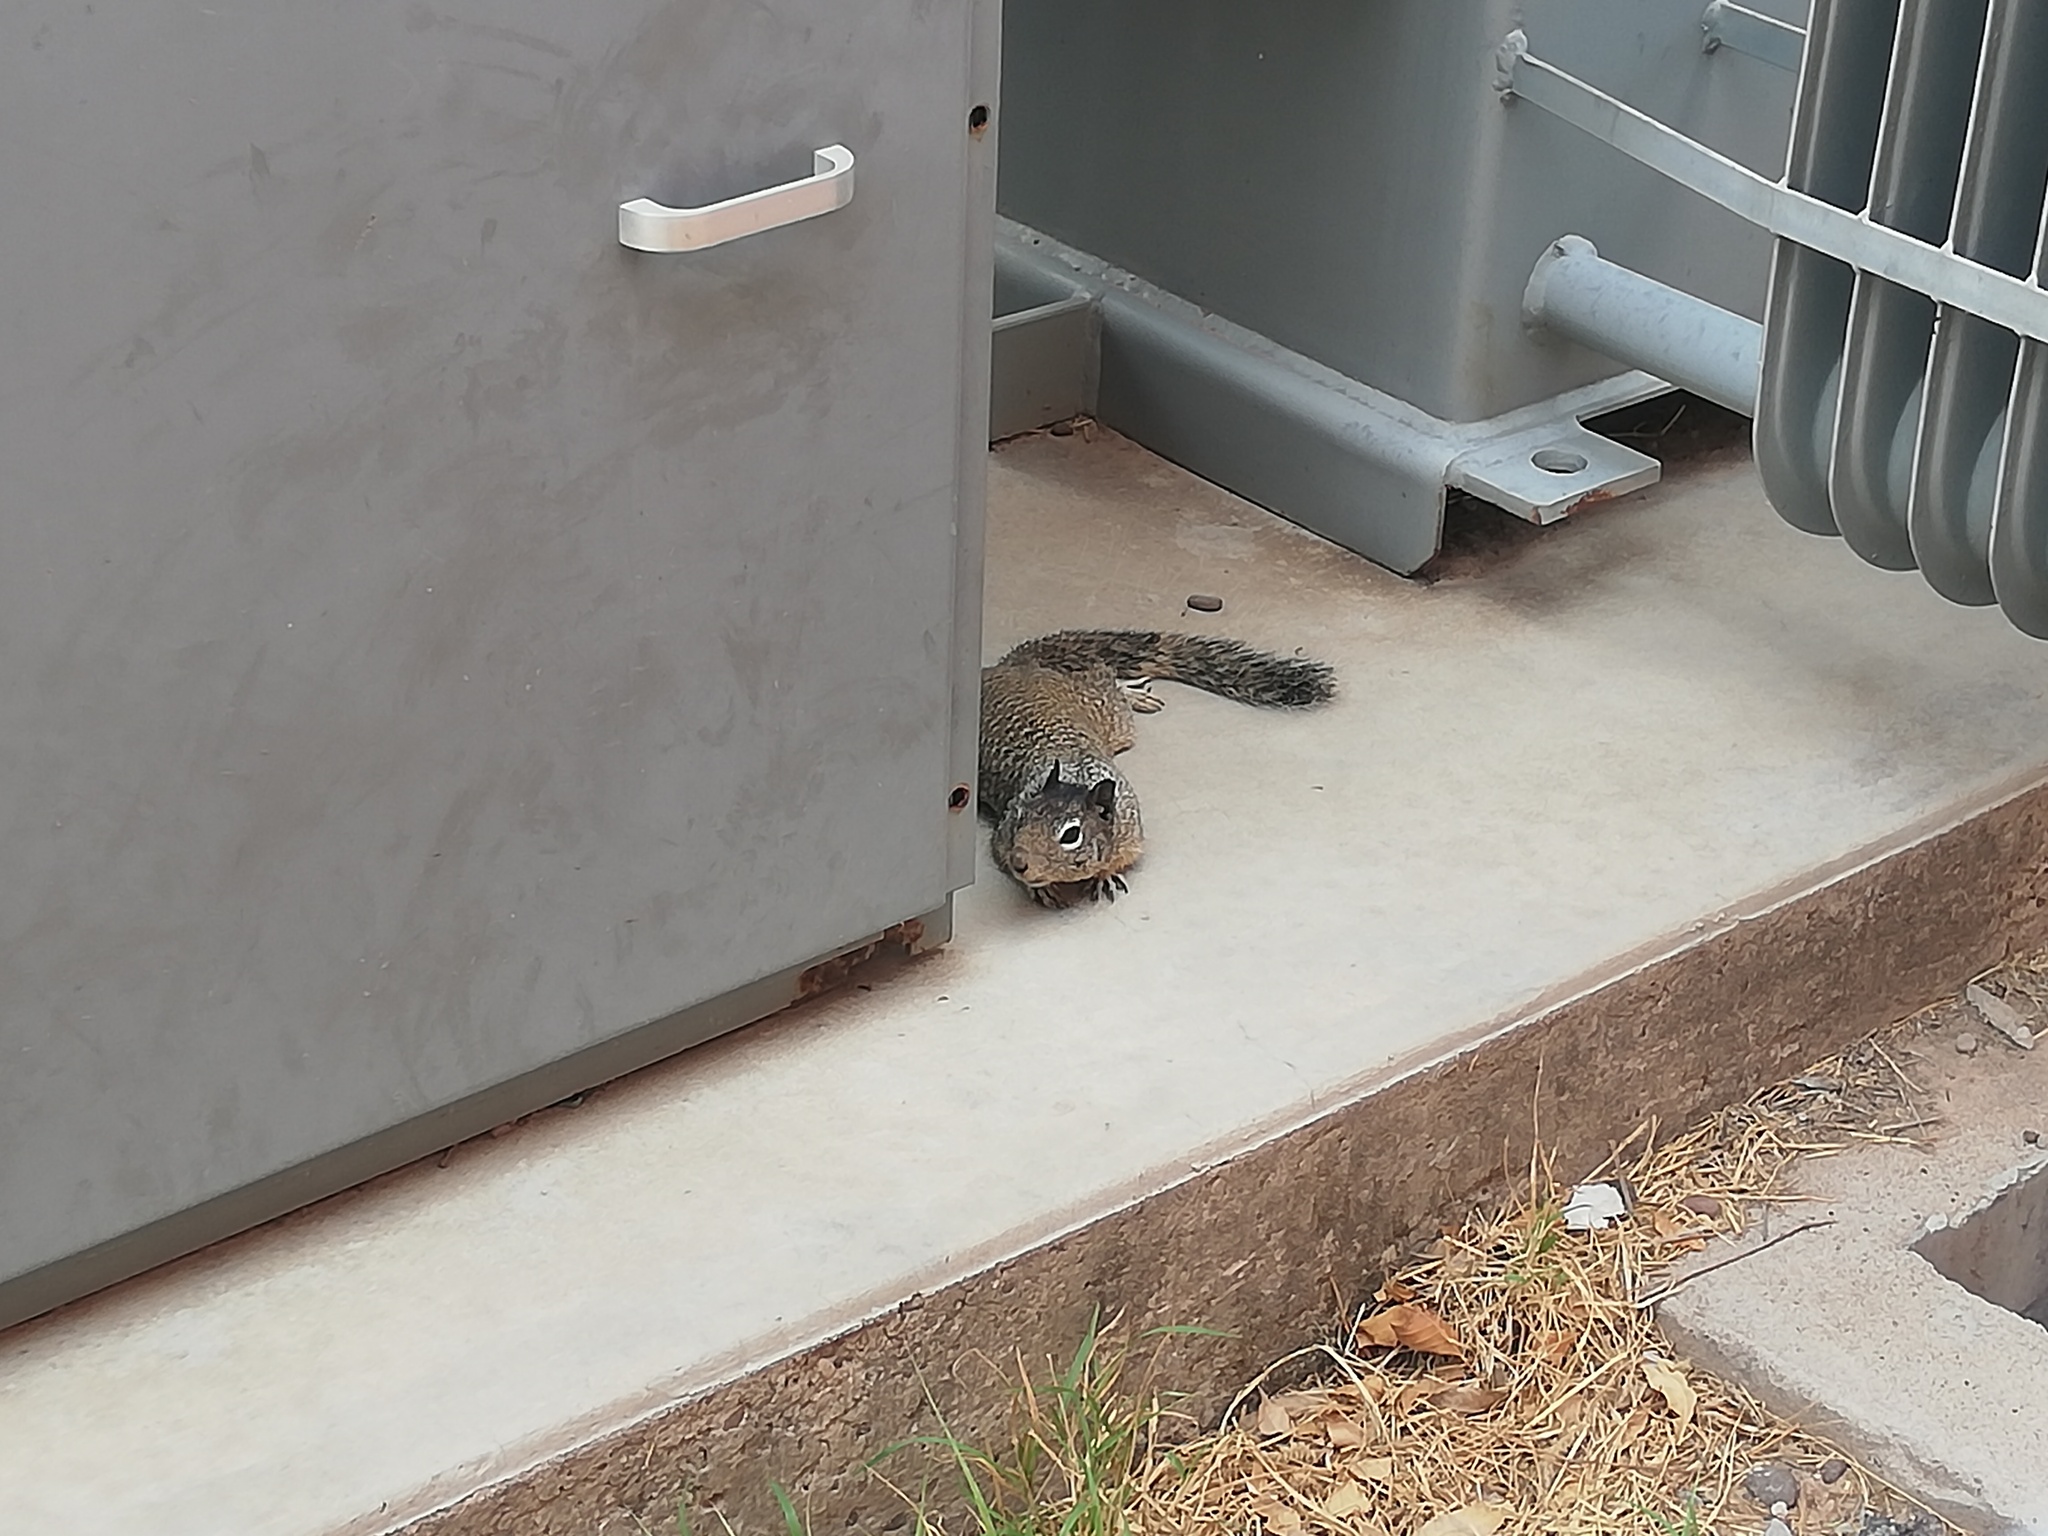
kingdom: Animalia
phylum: Chordata
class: Mammalia
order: Rodentia
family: Sciuridae
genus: Otospermophilus
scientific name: Otospermophilus variegatus
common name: Rock squirrel
